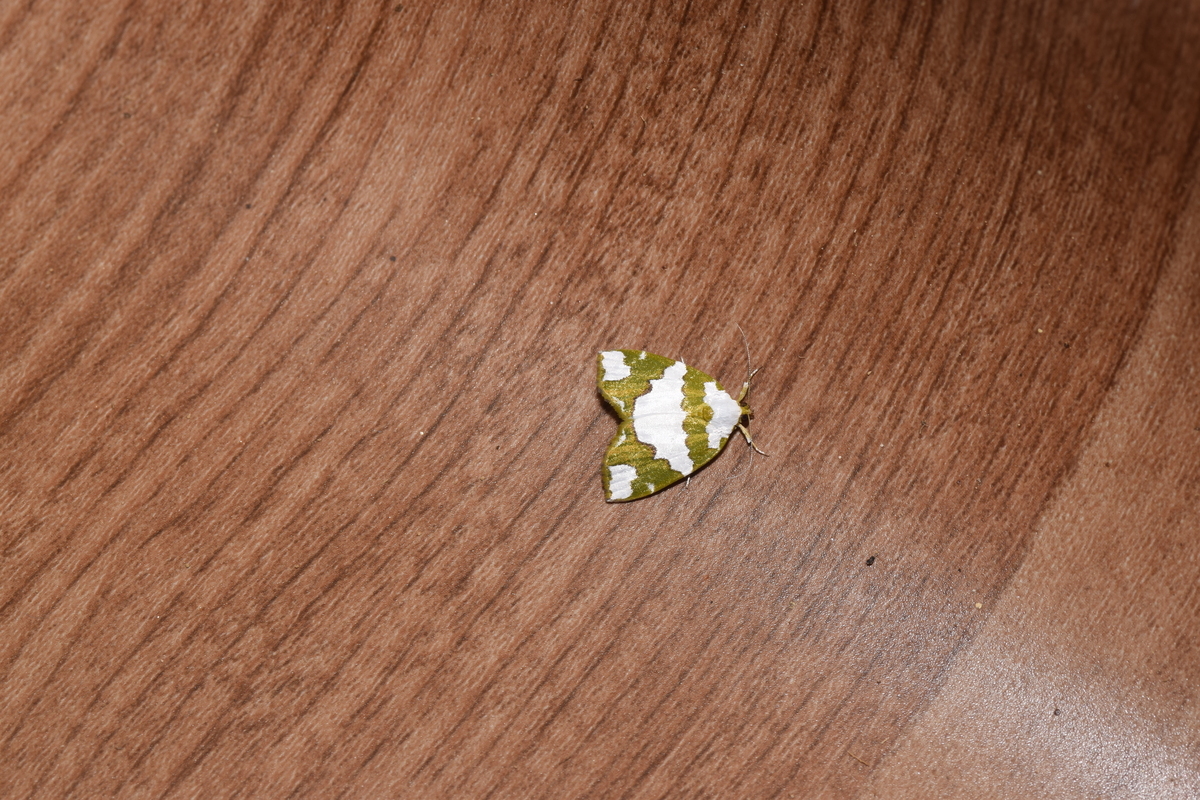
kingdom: Animalia
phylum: Arthropoda
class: Insecta
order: Lepidoptera
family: Nolidae
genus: Ariolica
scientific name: Ariolica pulchella
